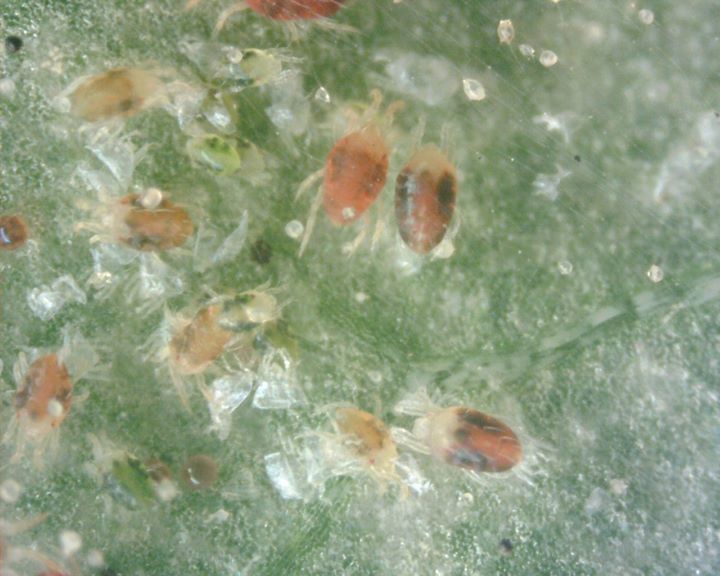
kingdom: Animalia
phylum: Arthropoda
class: Arachnida
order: Trombidiformes
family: Tetranychidae
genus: Tetranychus
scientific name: Tetranychus urticae
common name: Carmine spider mite
